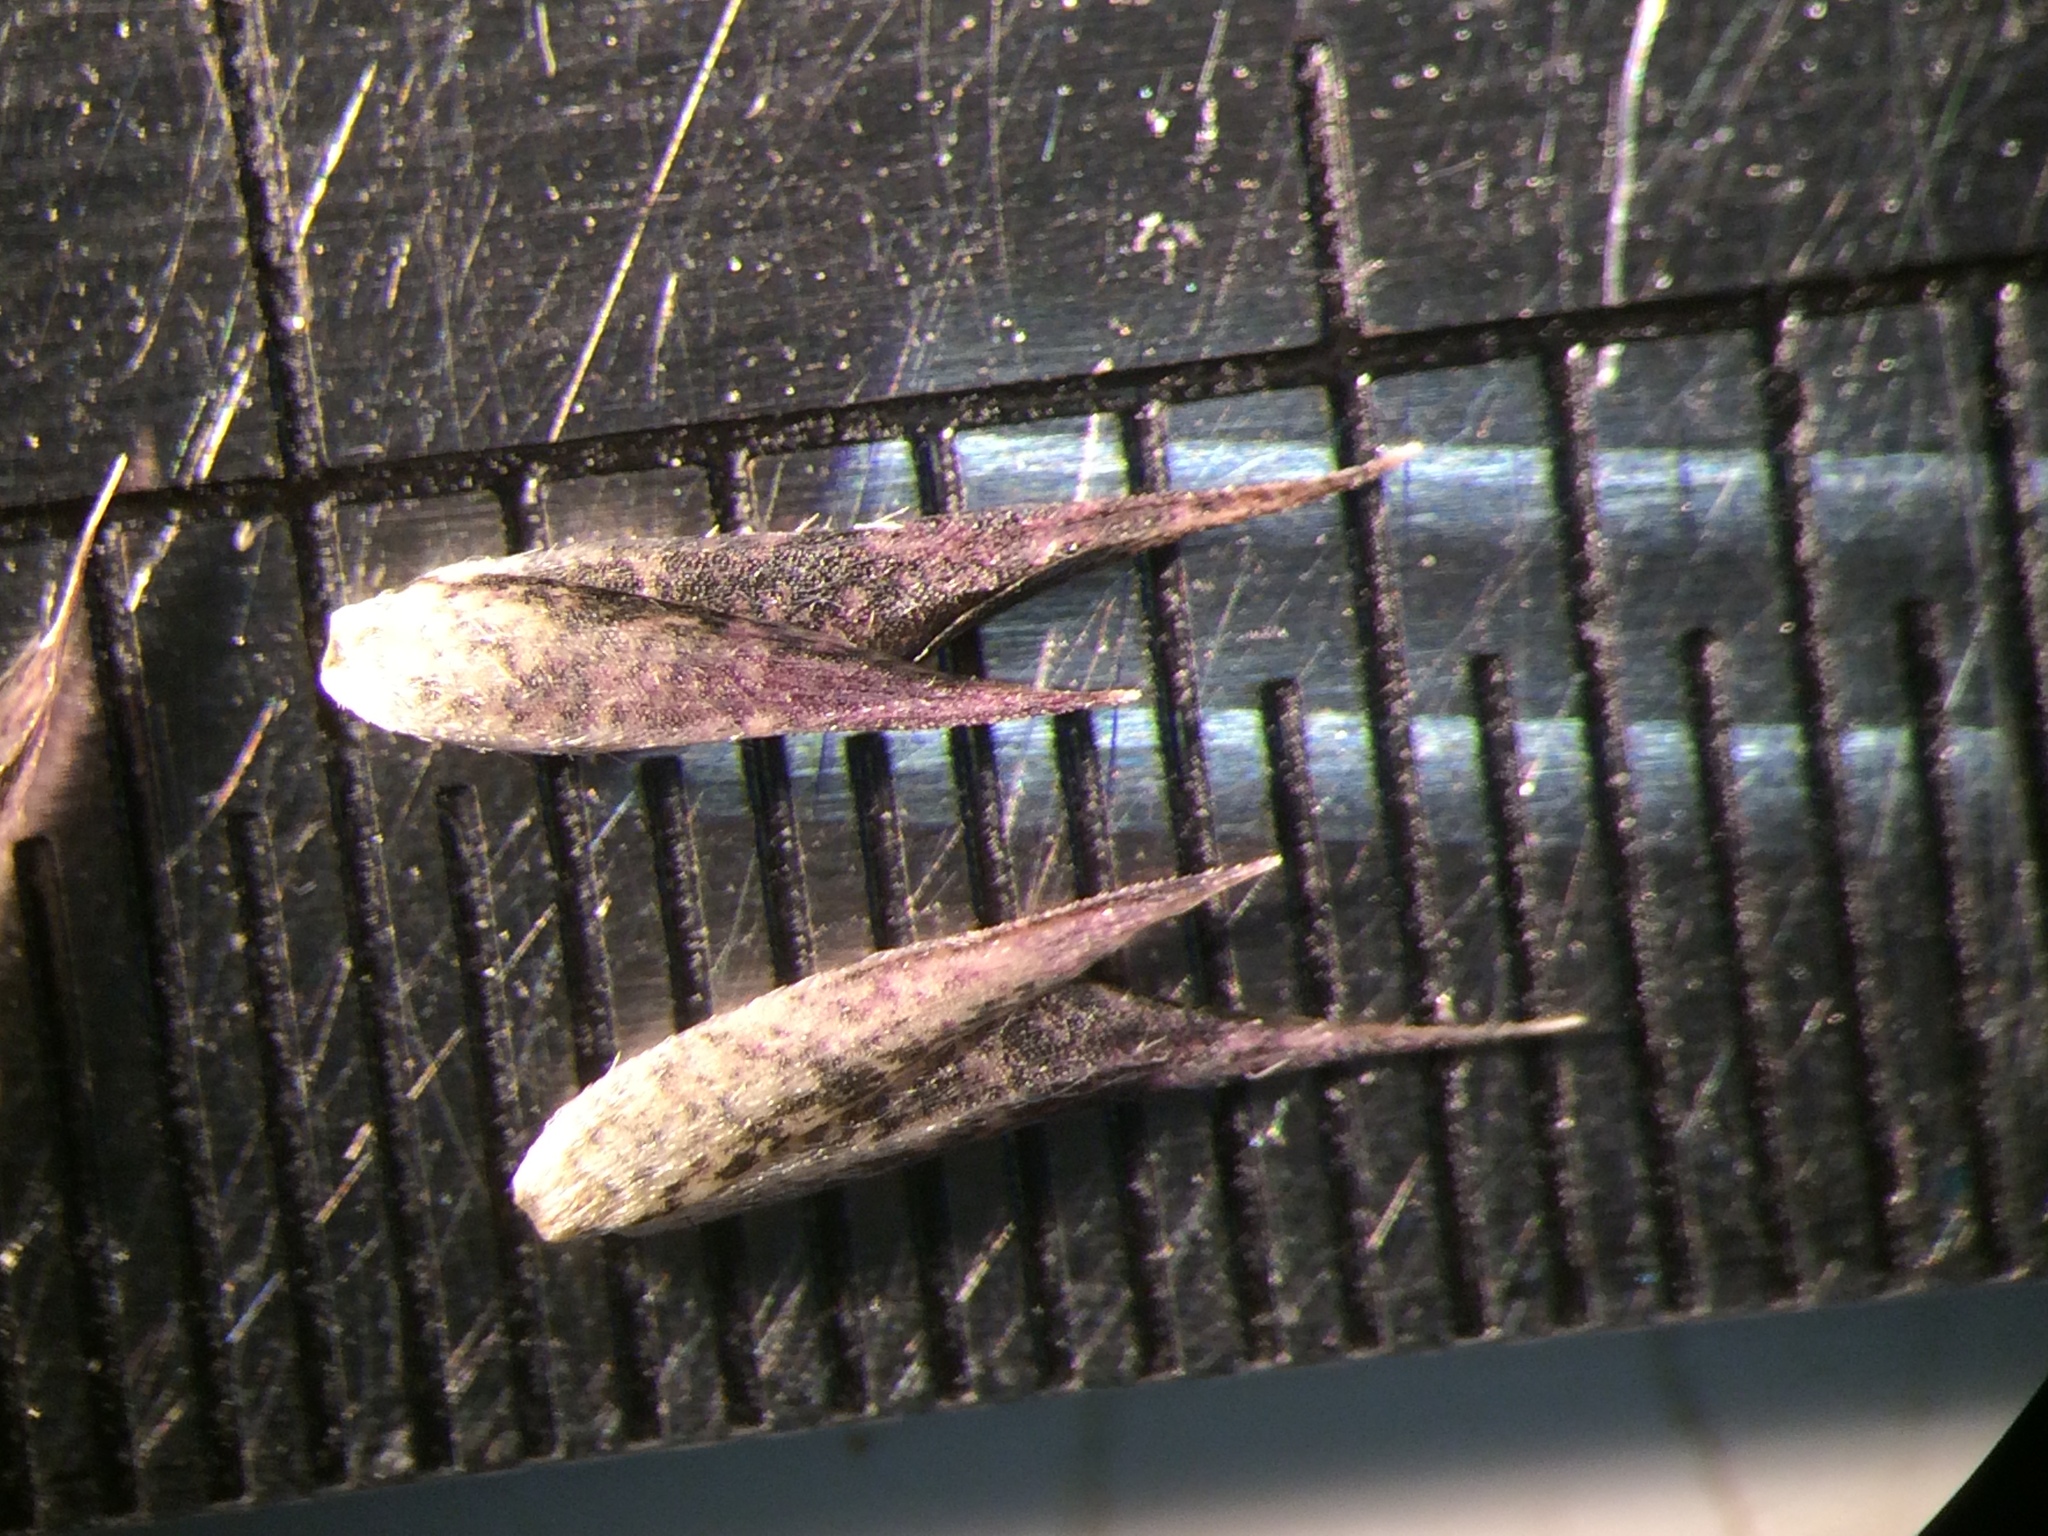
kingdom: Plantae
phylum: Tracheophyta
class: Liliopsida
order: Poales
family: Poaceae
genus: Sporobolus
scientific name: Sporobolus vaginiflorus
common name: Poverty dropseed
